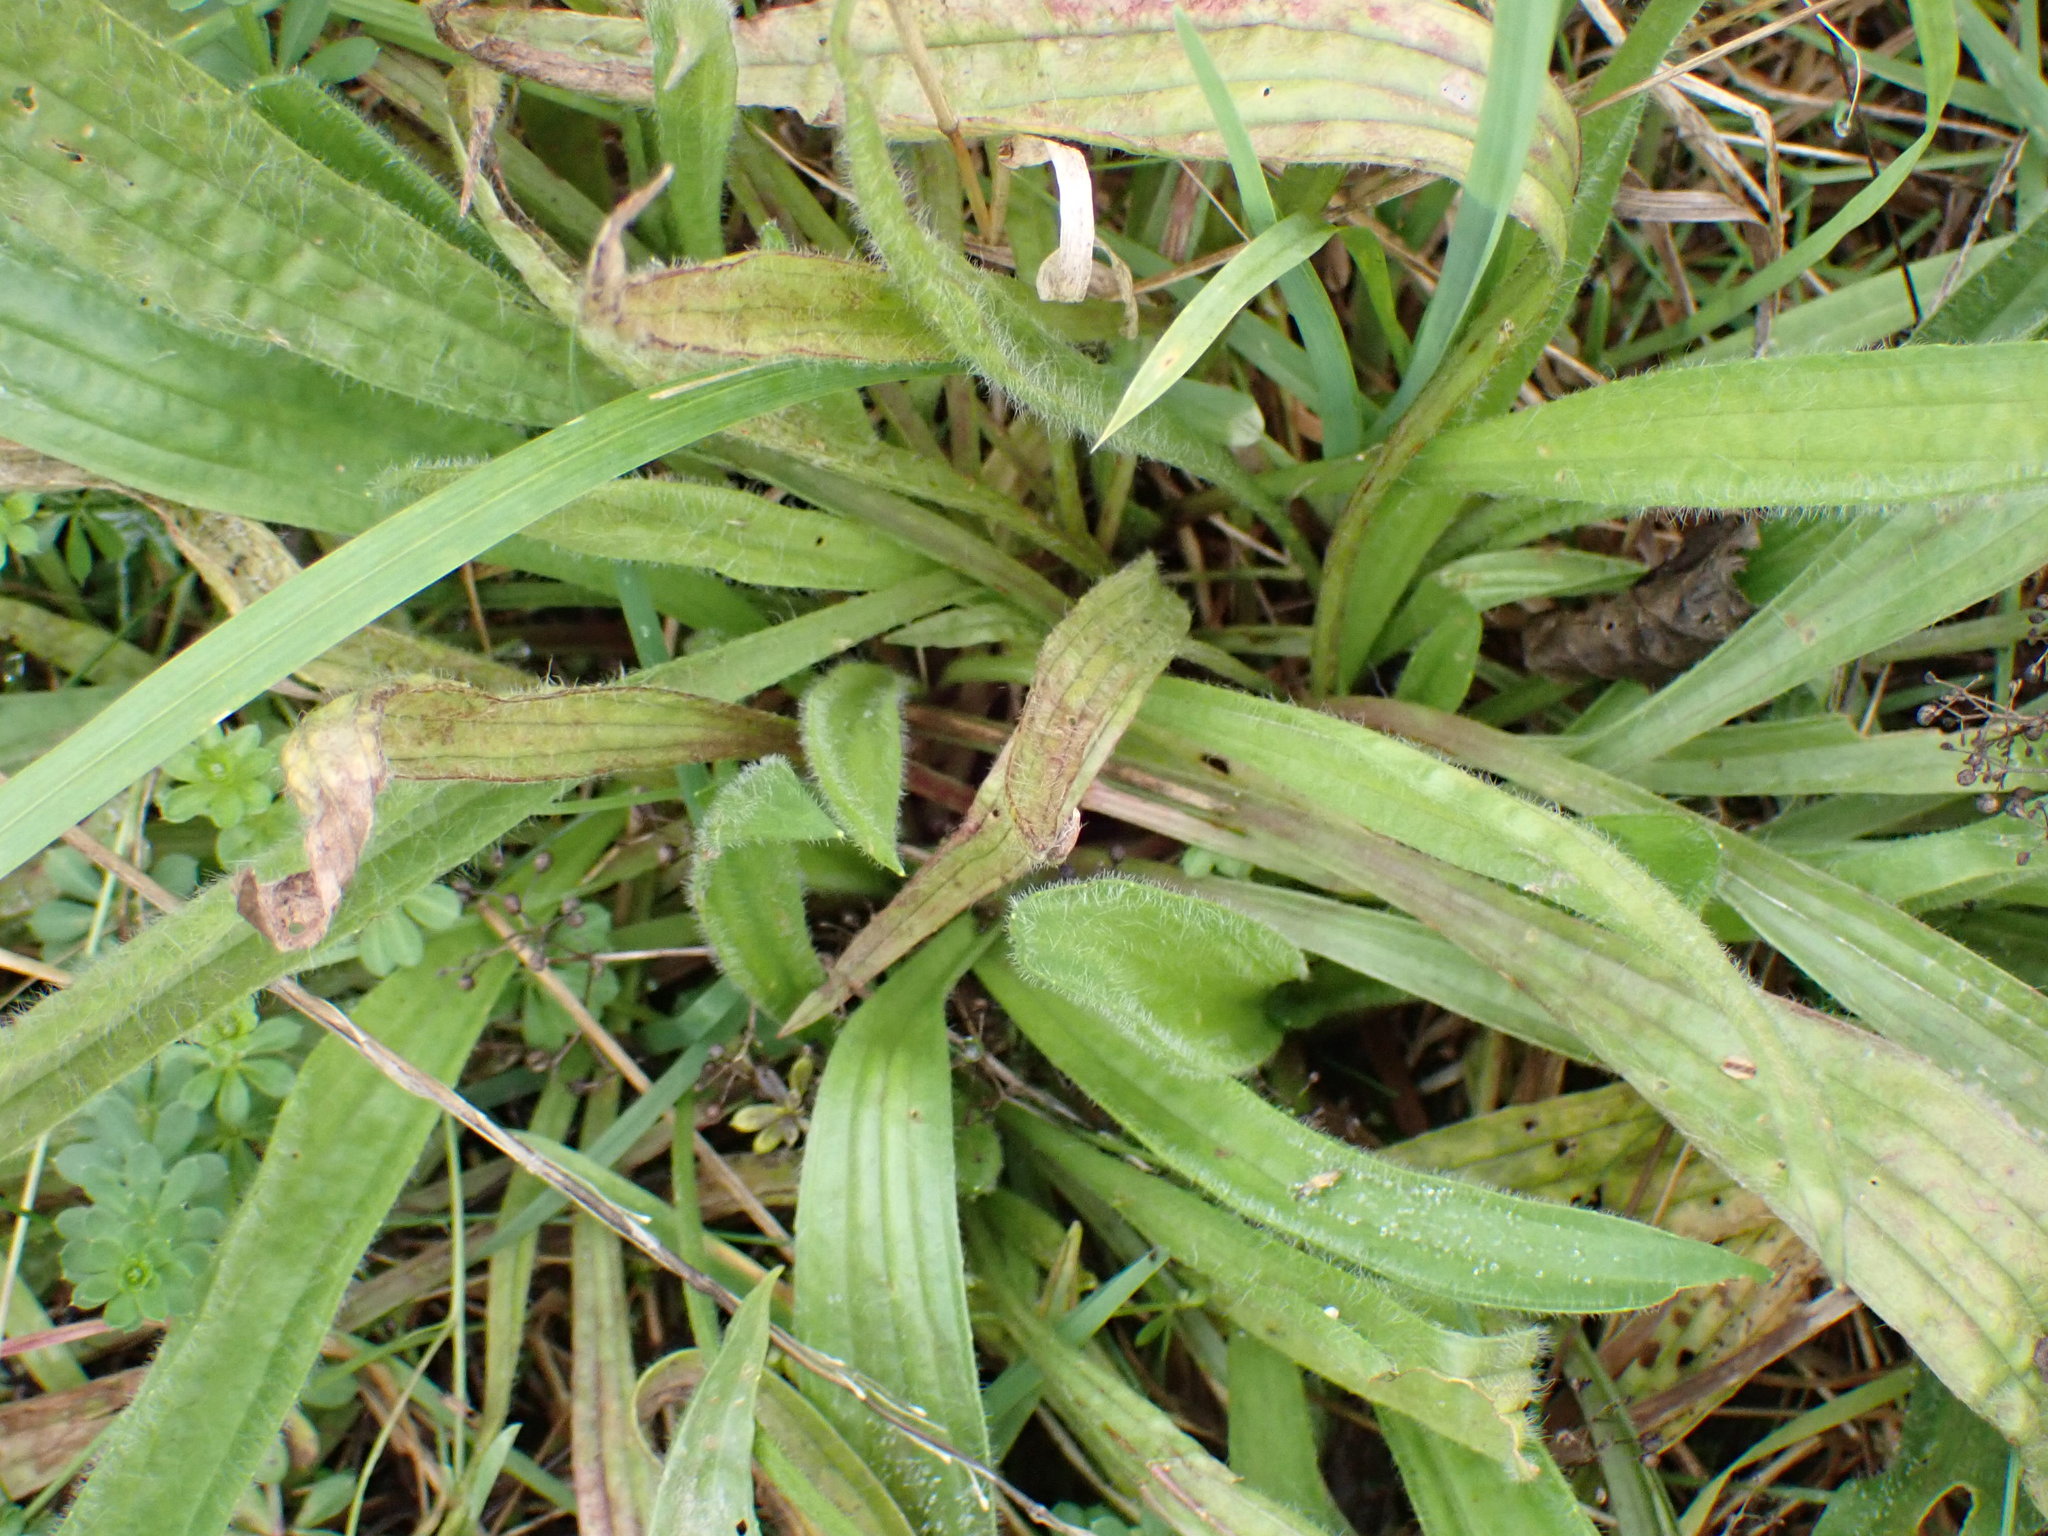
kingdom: Plantae
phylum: Tracheophyta
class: Magnoliopsida
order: Lamiales
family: Plantaginaceae
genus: Plantago
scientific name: Plantago lanceolata
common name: Ribwort plantain
